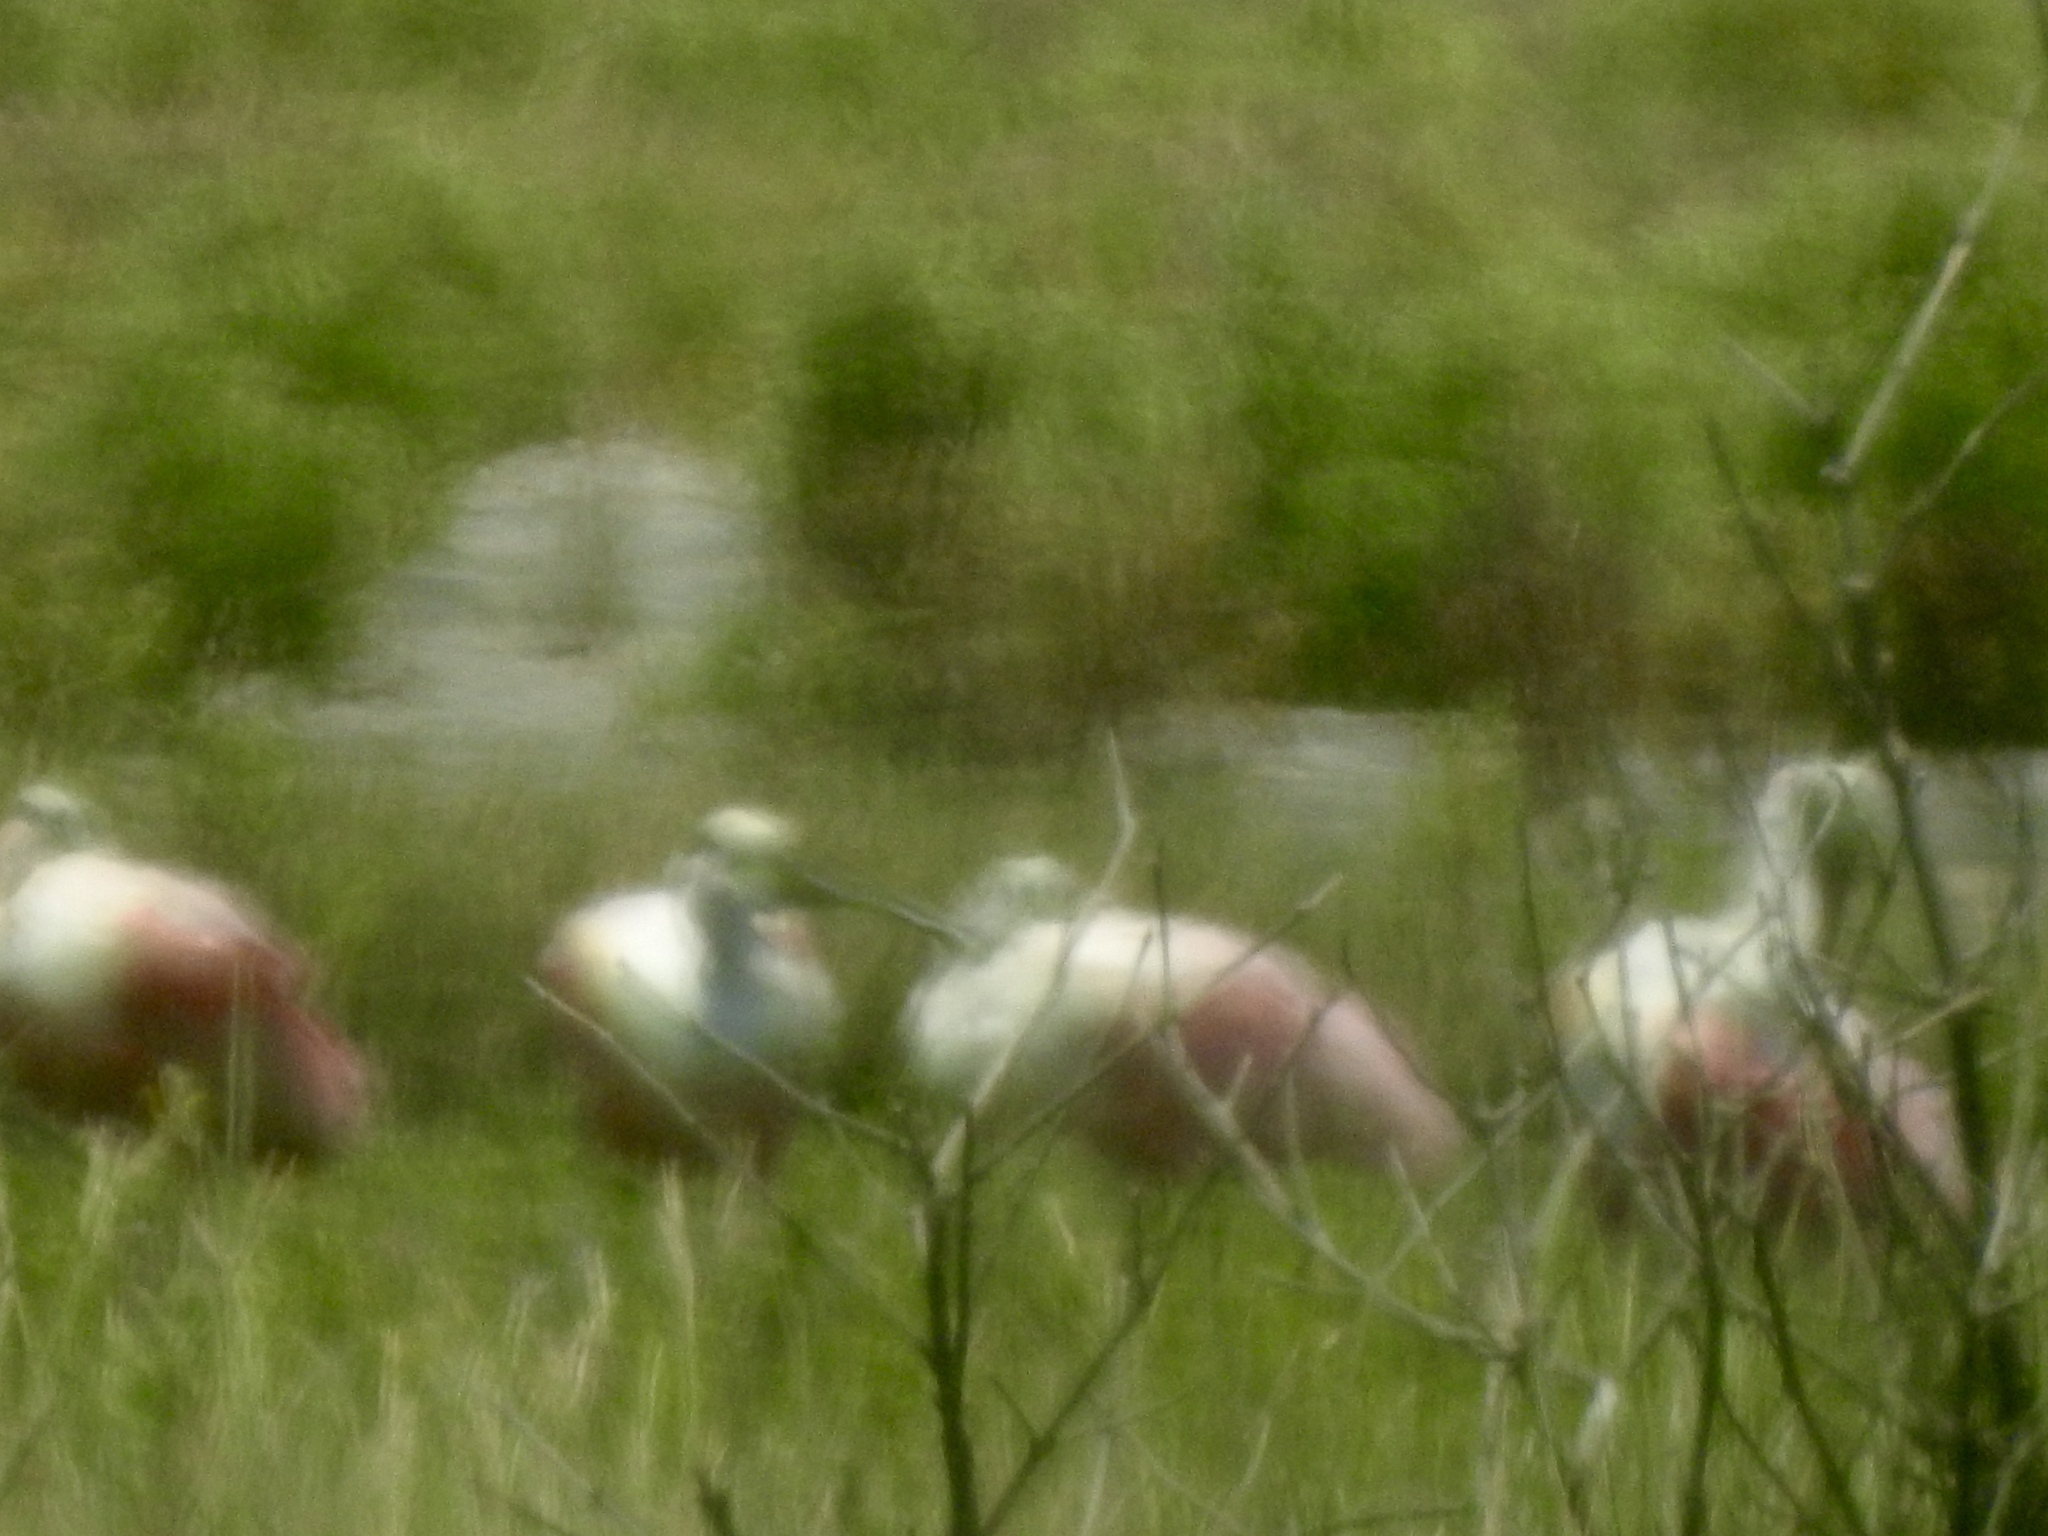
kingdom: Animalia
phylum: Chordata
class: Aves
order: Pelecaniformes
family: Threskiornithidae
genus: Platalea
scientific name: Platalea ajaja
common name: Roseate spoonbill
